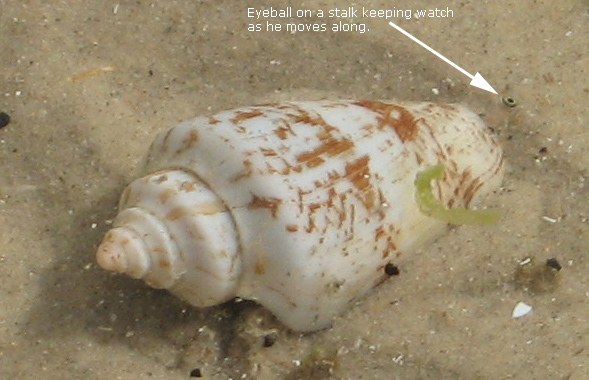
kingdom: Animalia
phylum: Mollusca
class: Gastropoda
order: Littorinimorpha
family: Strombidae
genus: Conomurex
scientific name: Conomurex persicus
